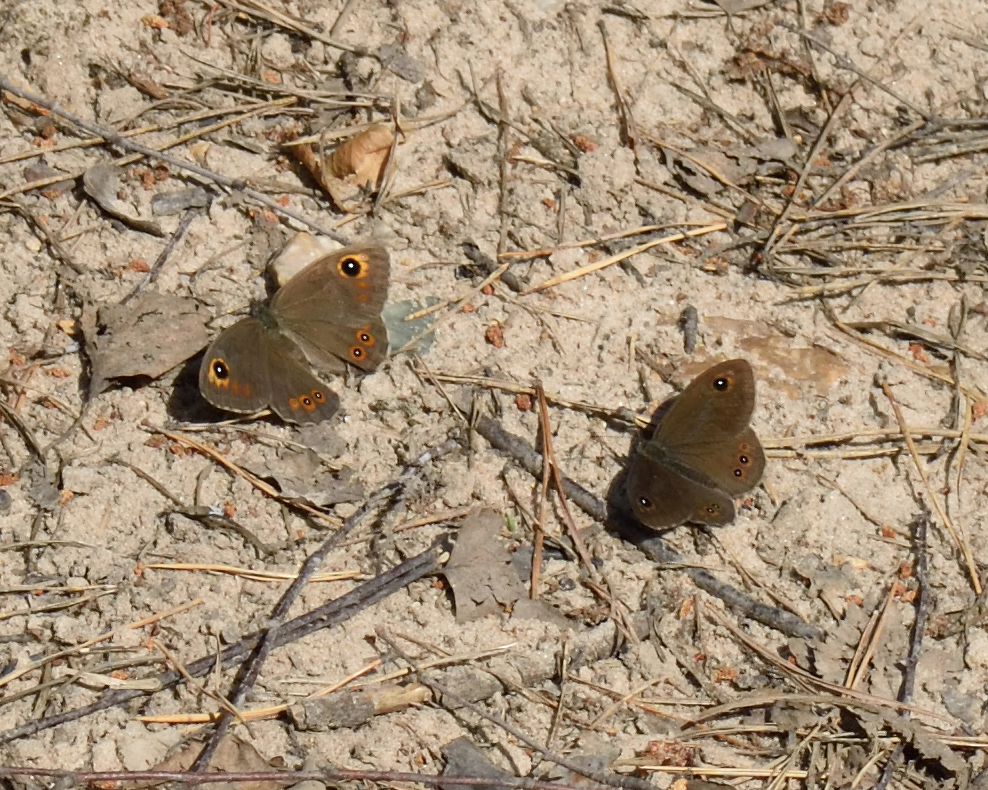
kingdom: Animalia
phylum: Arthropoda
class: Insecta
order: Lepidoptera
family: Nymphalidae
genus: Pararge
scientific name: Pararge Lasiommata maera
